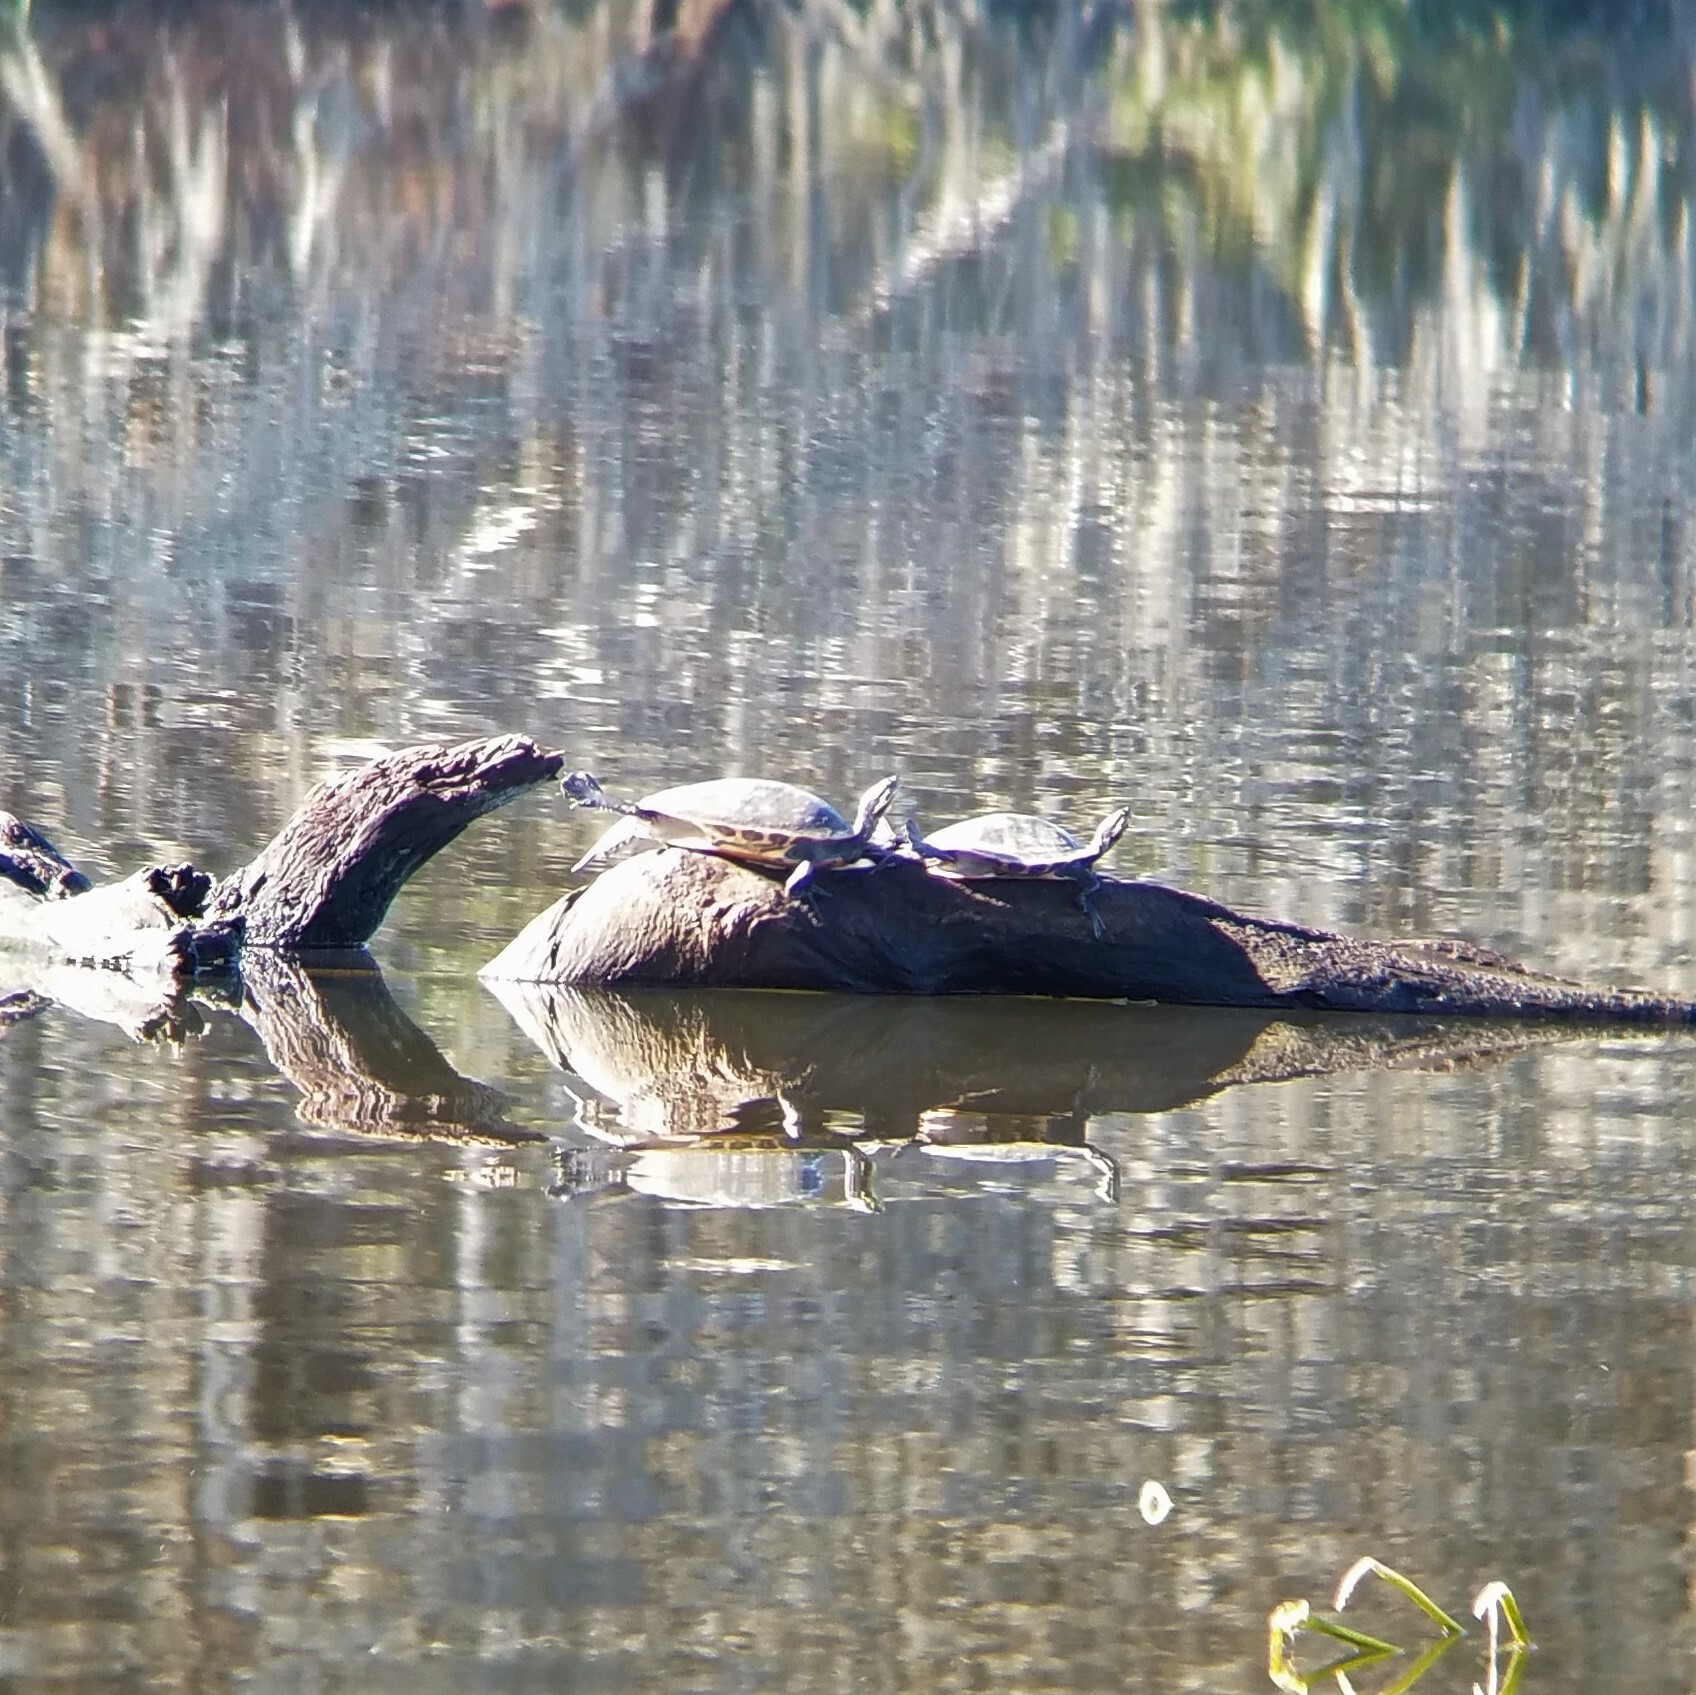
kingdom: Animalia
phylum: Chordata
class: Testudines
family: Emydidae
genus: Pseudemys
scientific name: Pseudemys concinna
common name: Eastern river cooter
